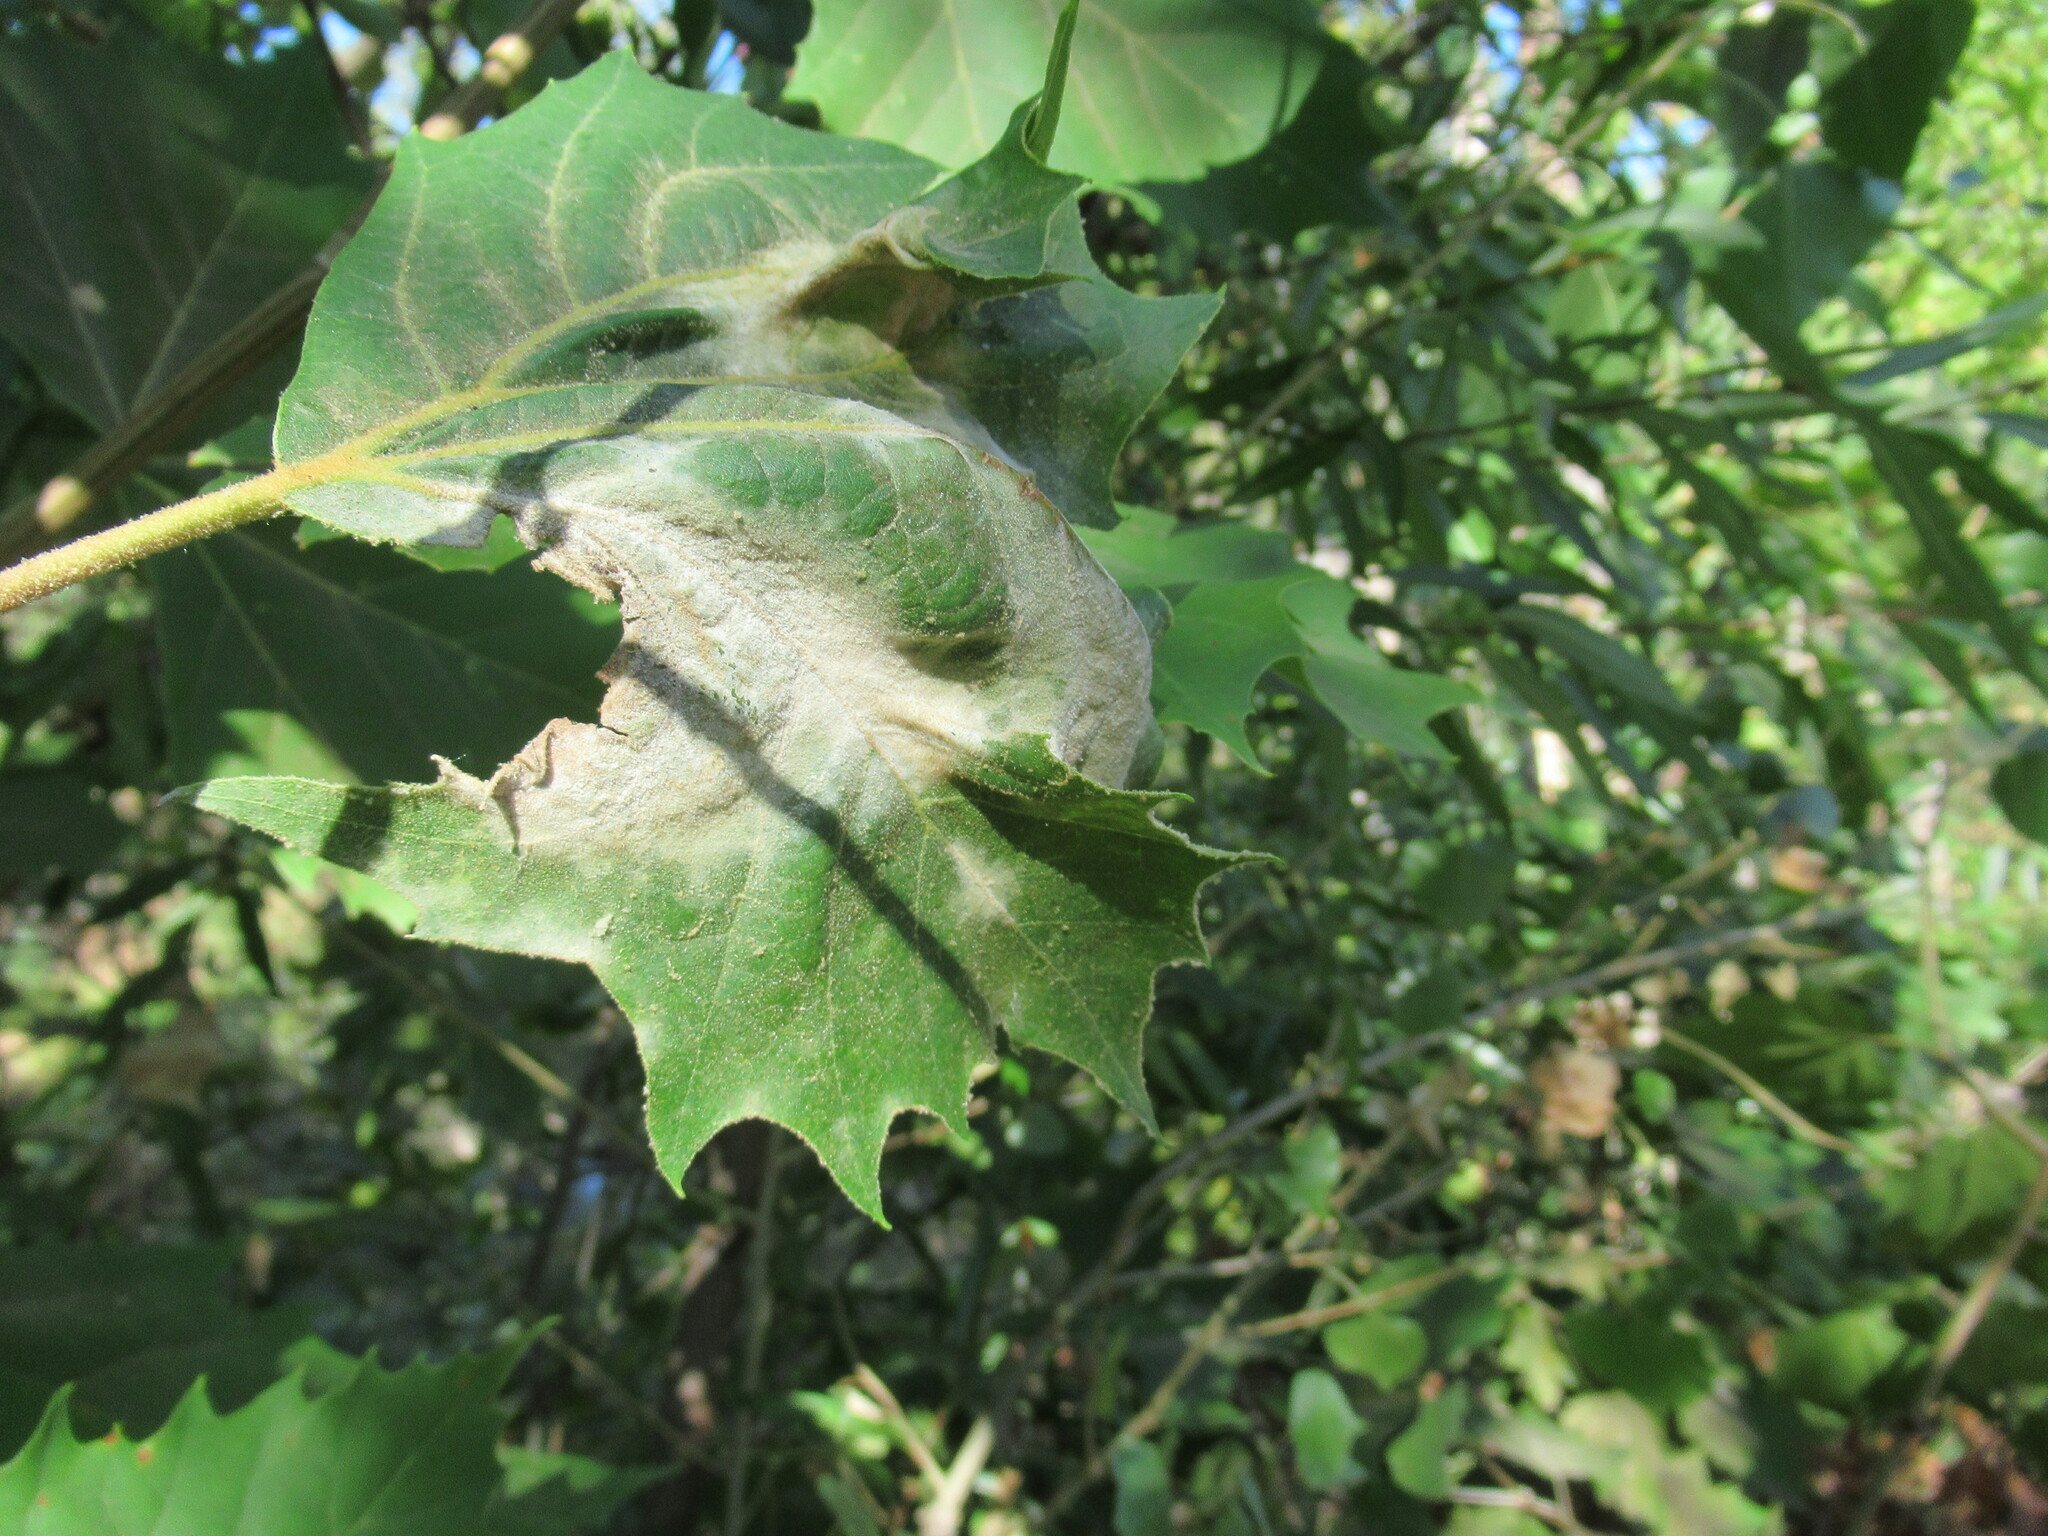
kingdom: Fungi
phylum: Ascomycota
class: Leotiomycetes
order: Helotiales
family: Erysiphaceae
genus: Erysiphe
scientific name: Erysiphe platani
